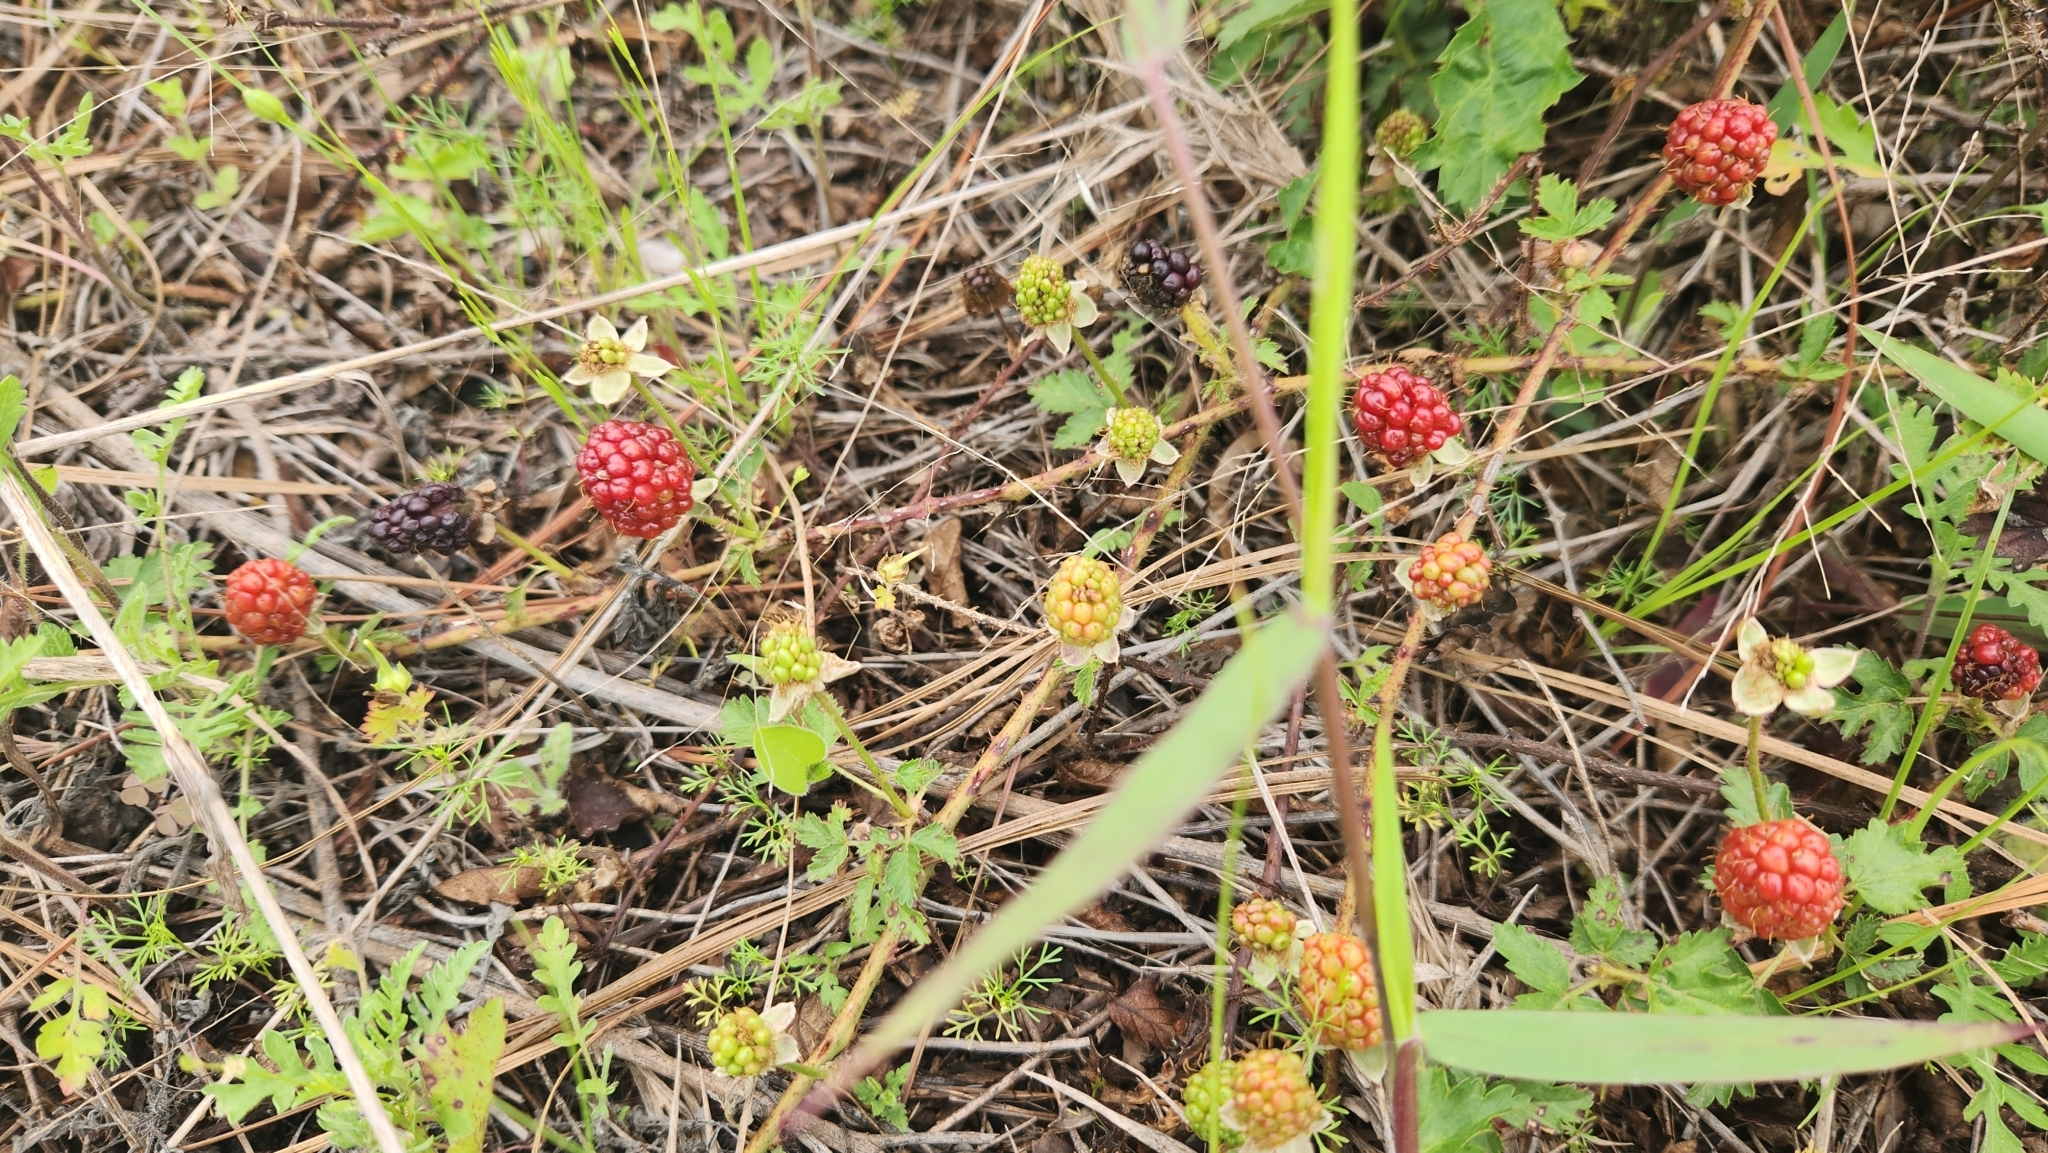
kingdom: Plantae
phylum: Tracheophyta
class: Magnoliopsida
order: Rosales
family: Rosaceae
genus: Rubus
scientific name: Rubus trivialis
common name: Southern dewberry
